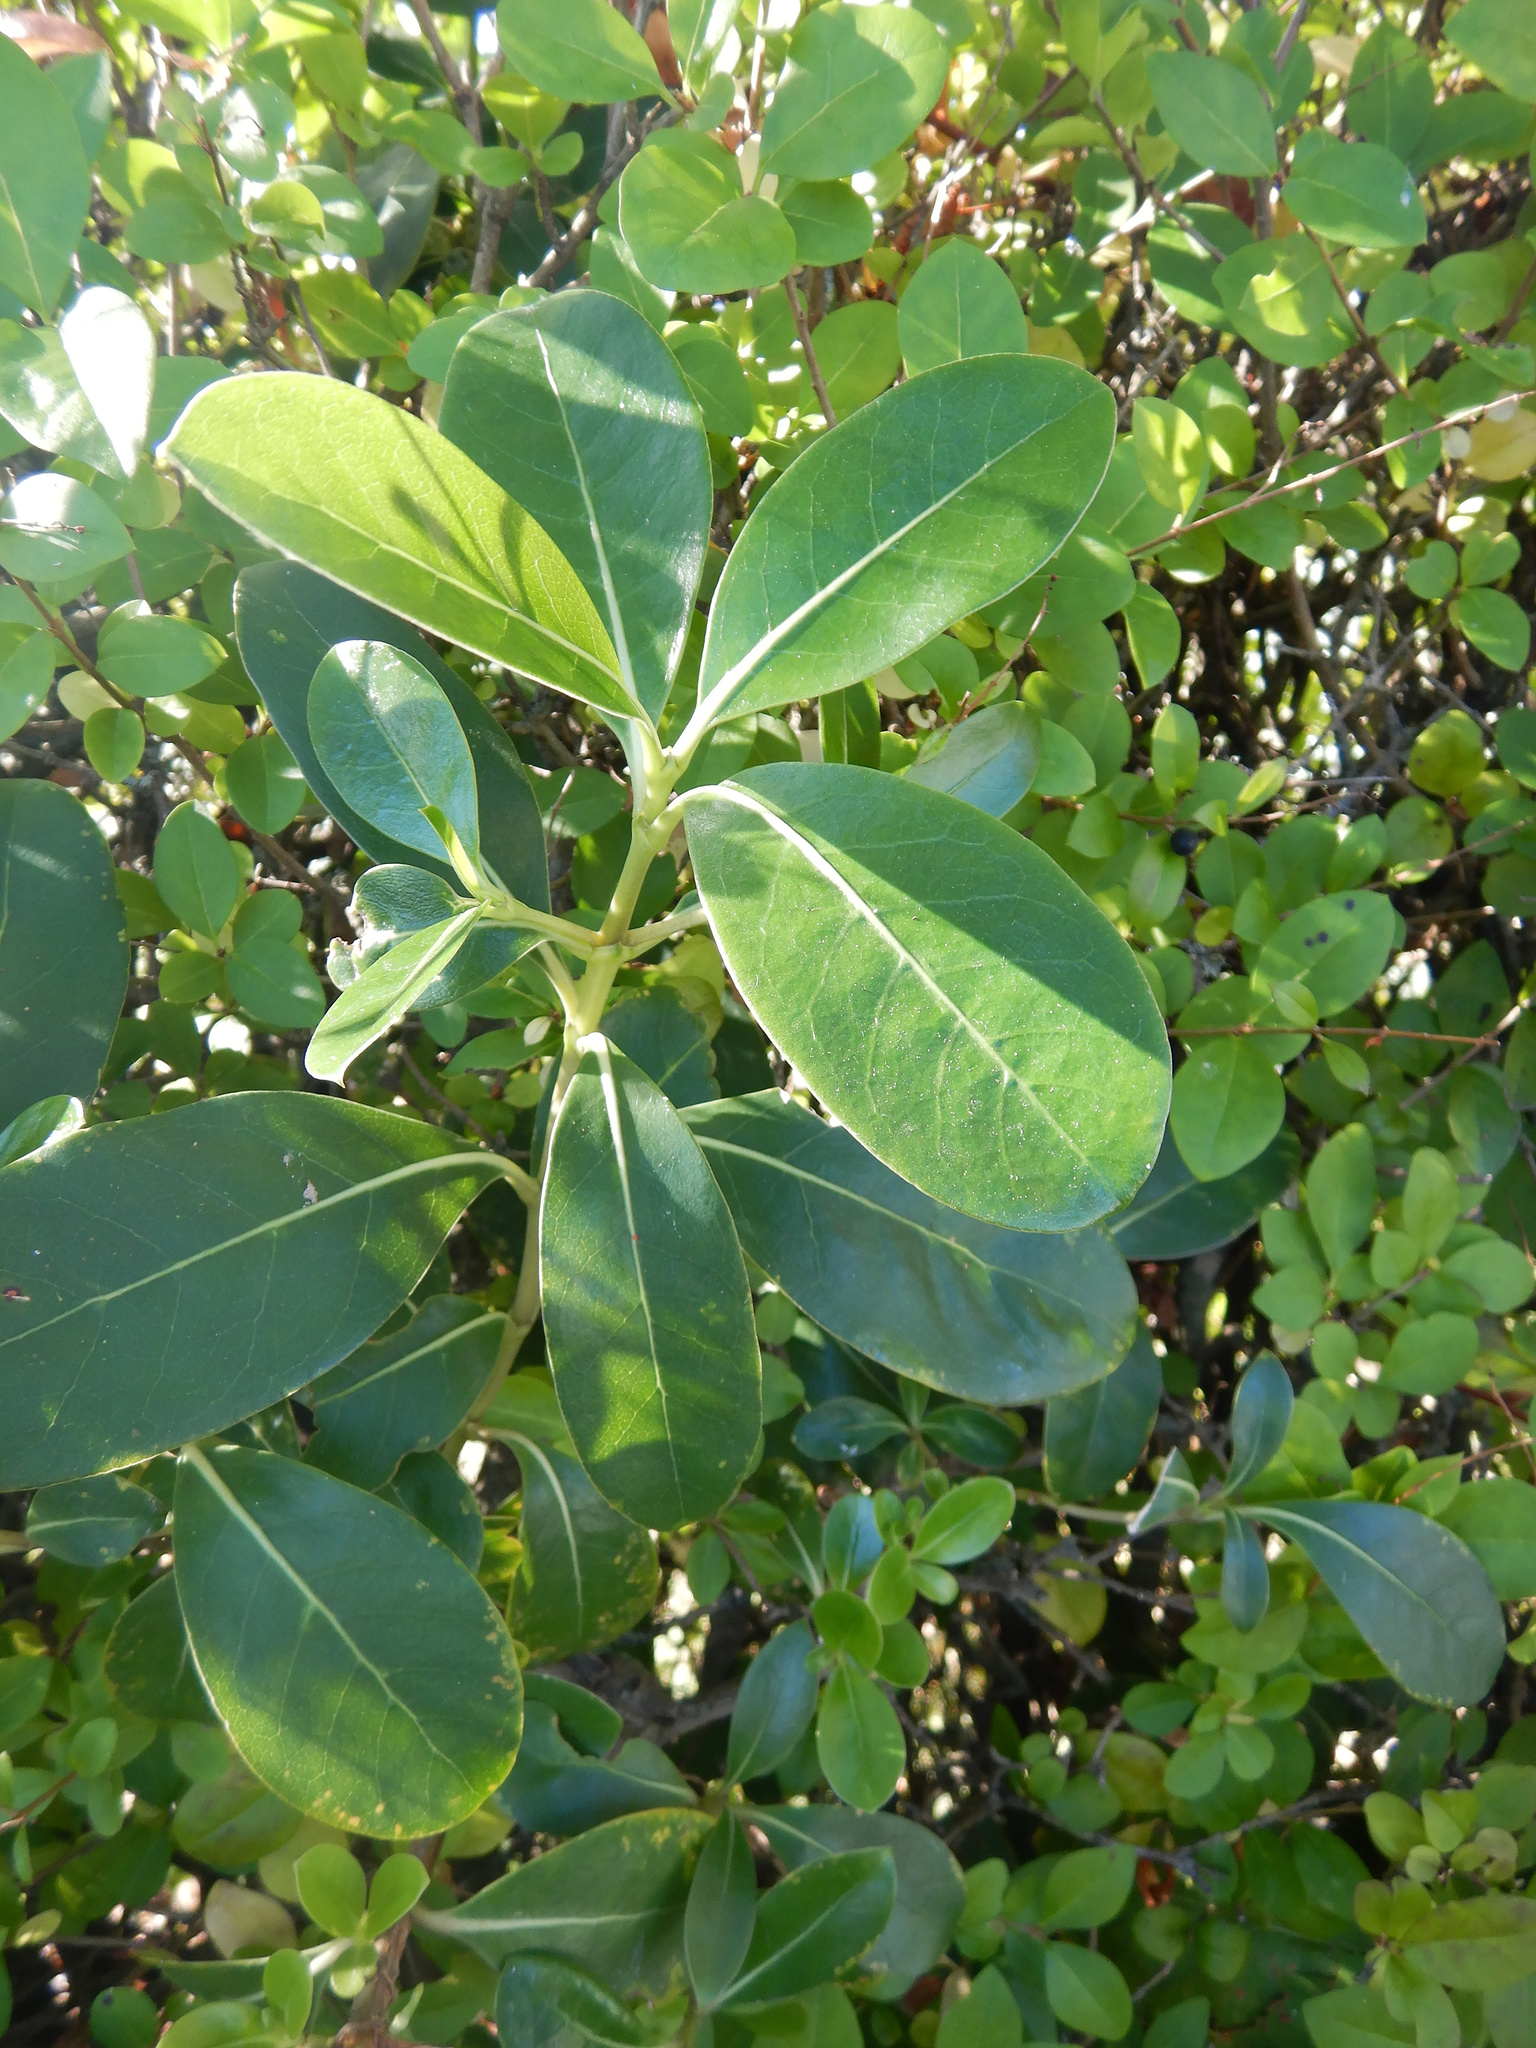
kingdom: Plantae
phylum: Tracheophyta
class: Magnoliopsida
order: Gentianales
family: Rubiaceae
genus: Coprosma
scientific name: Coprosma lucida
